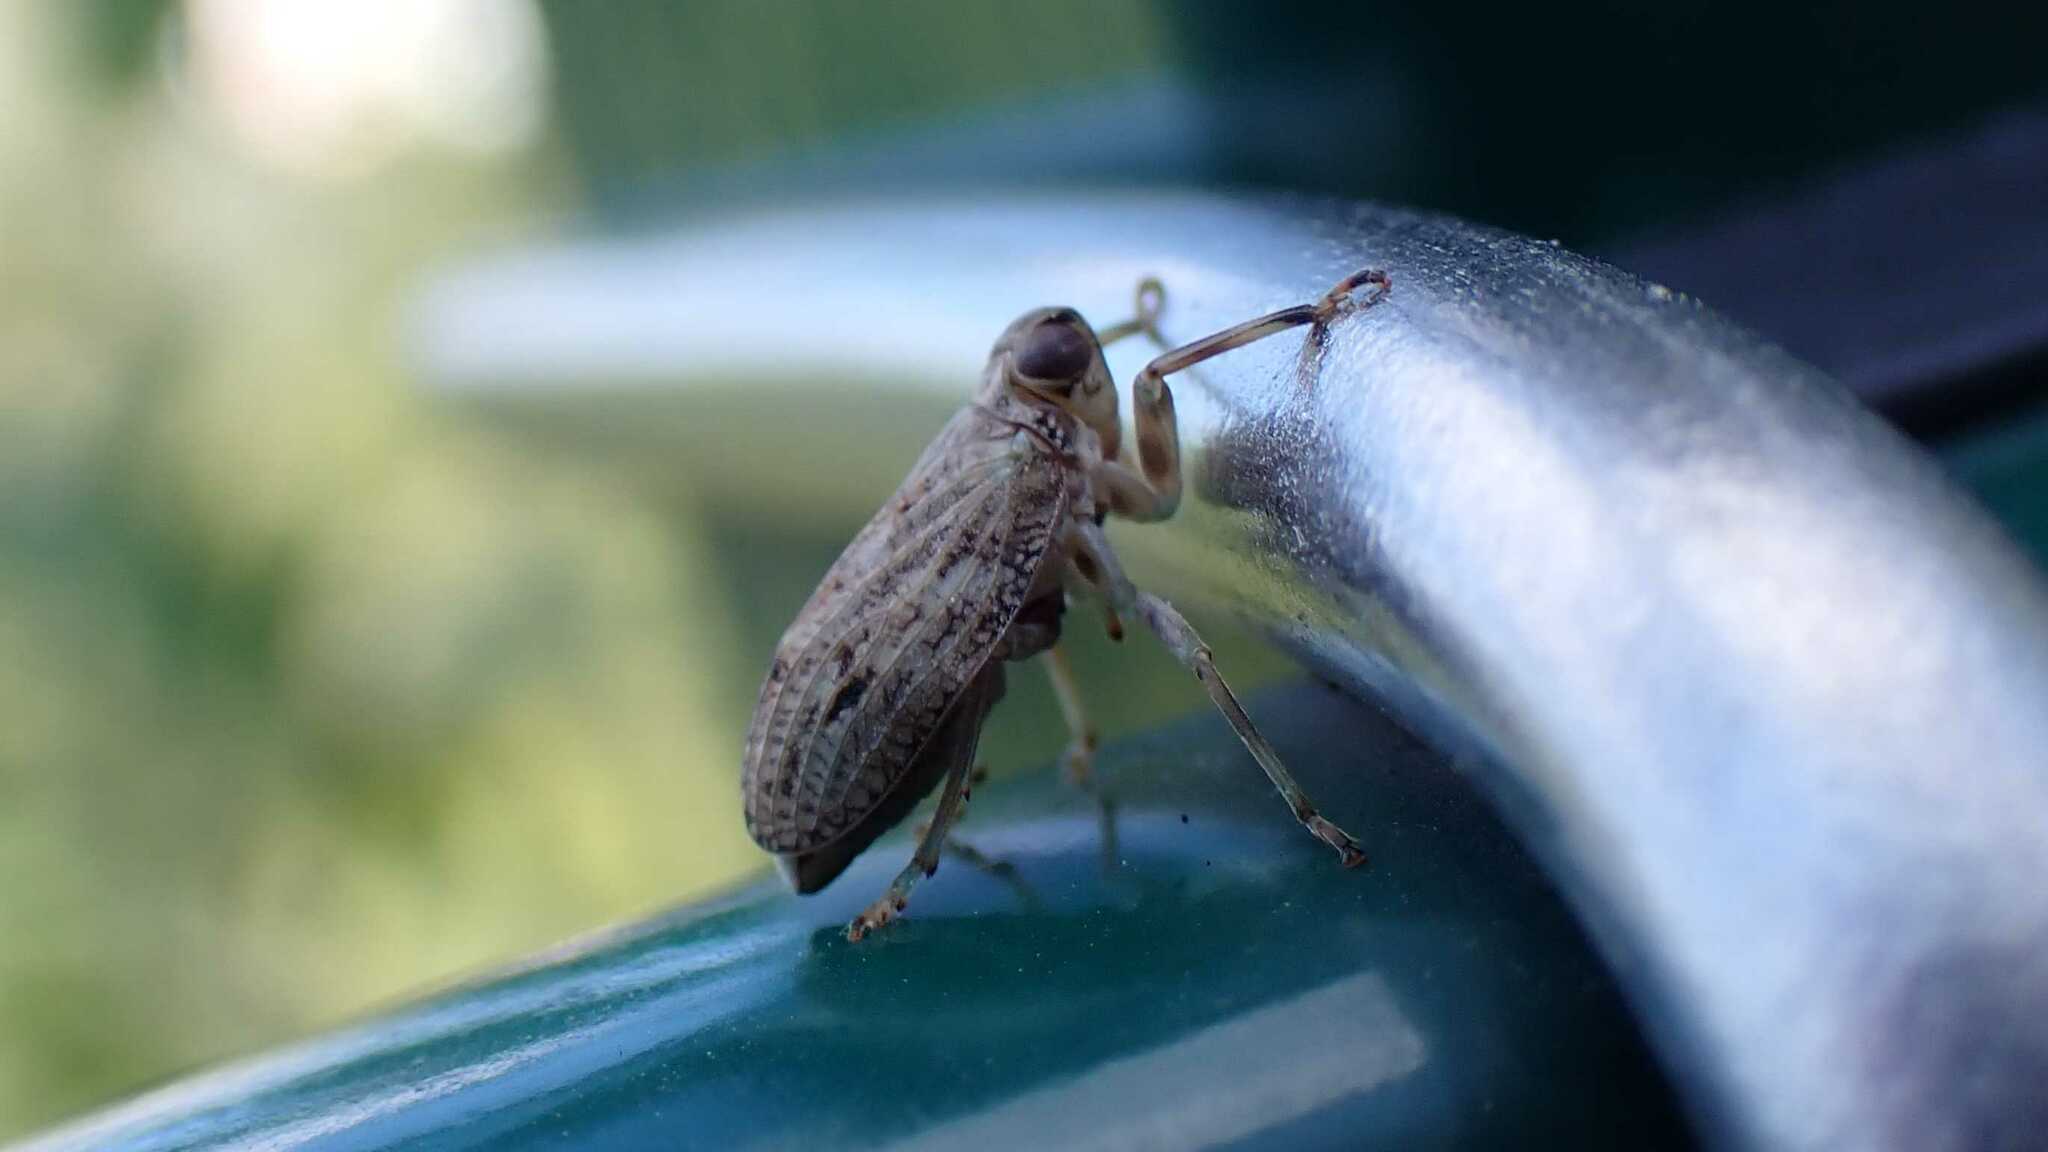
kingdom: Animalia
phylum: Arthropoda
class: Insecta
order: Hemiptera
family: Issidae
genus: Issus
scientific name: Issus coleoptratus
